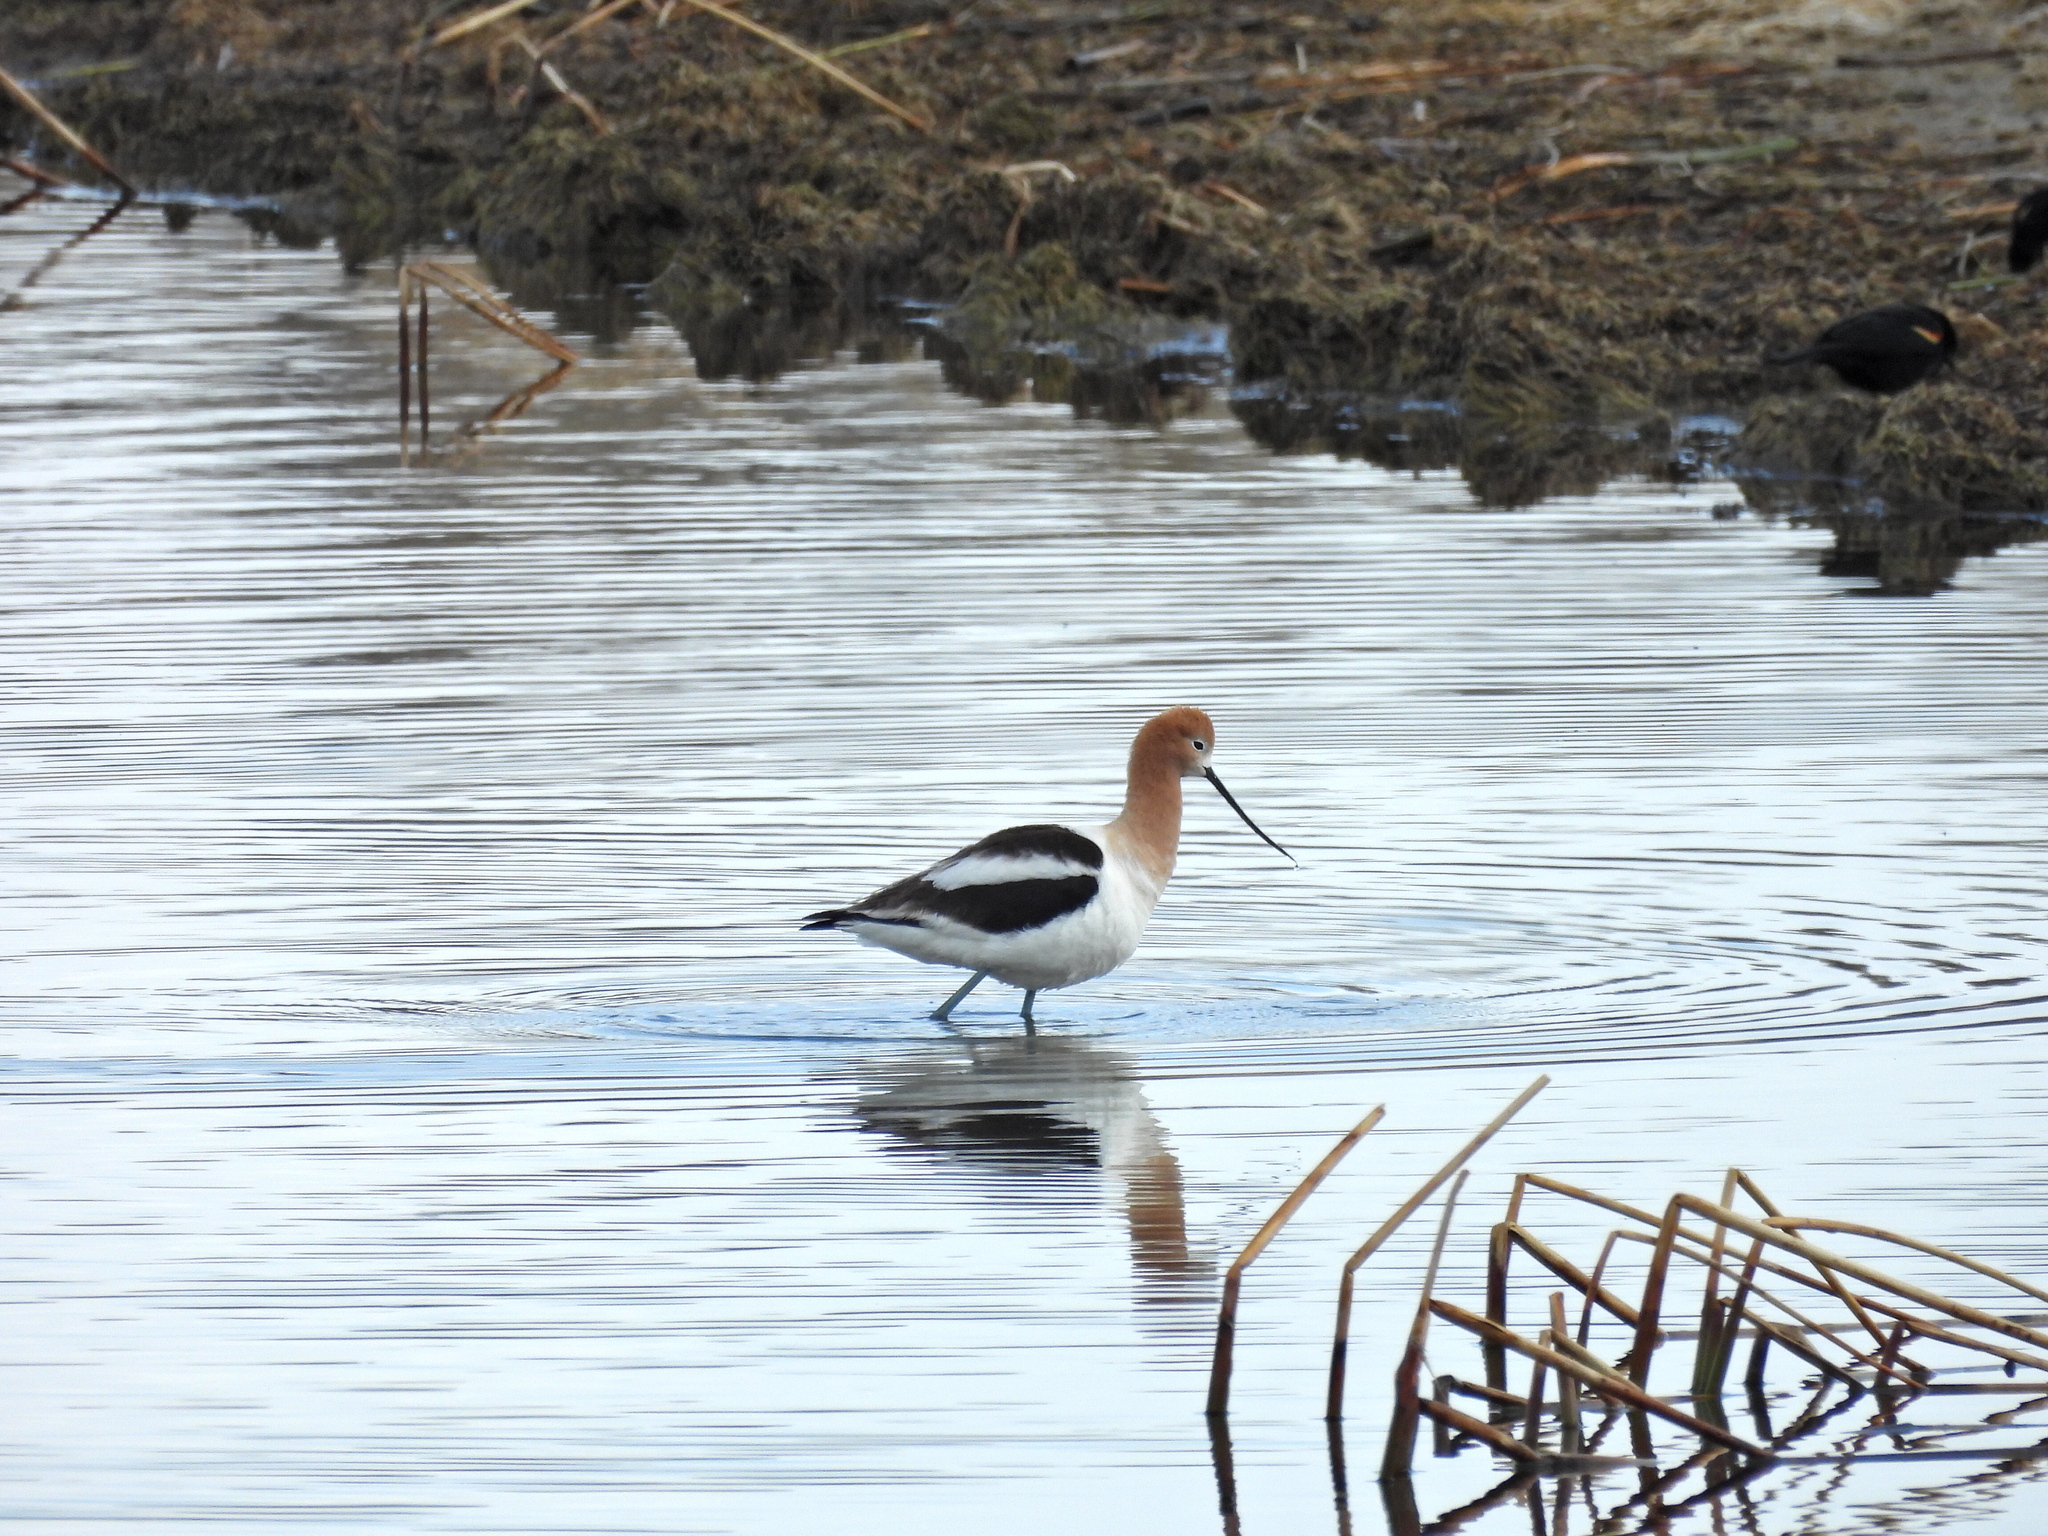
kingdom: Animalia
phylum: Chordata
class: Aves
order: Charadriiformes
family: Recurvirostridae
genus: Recurvirostra
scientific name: Recurvirostra americana
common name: American avocet
